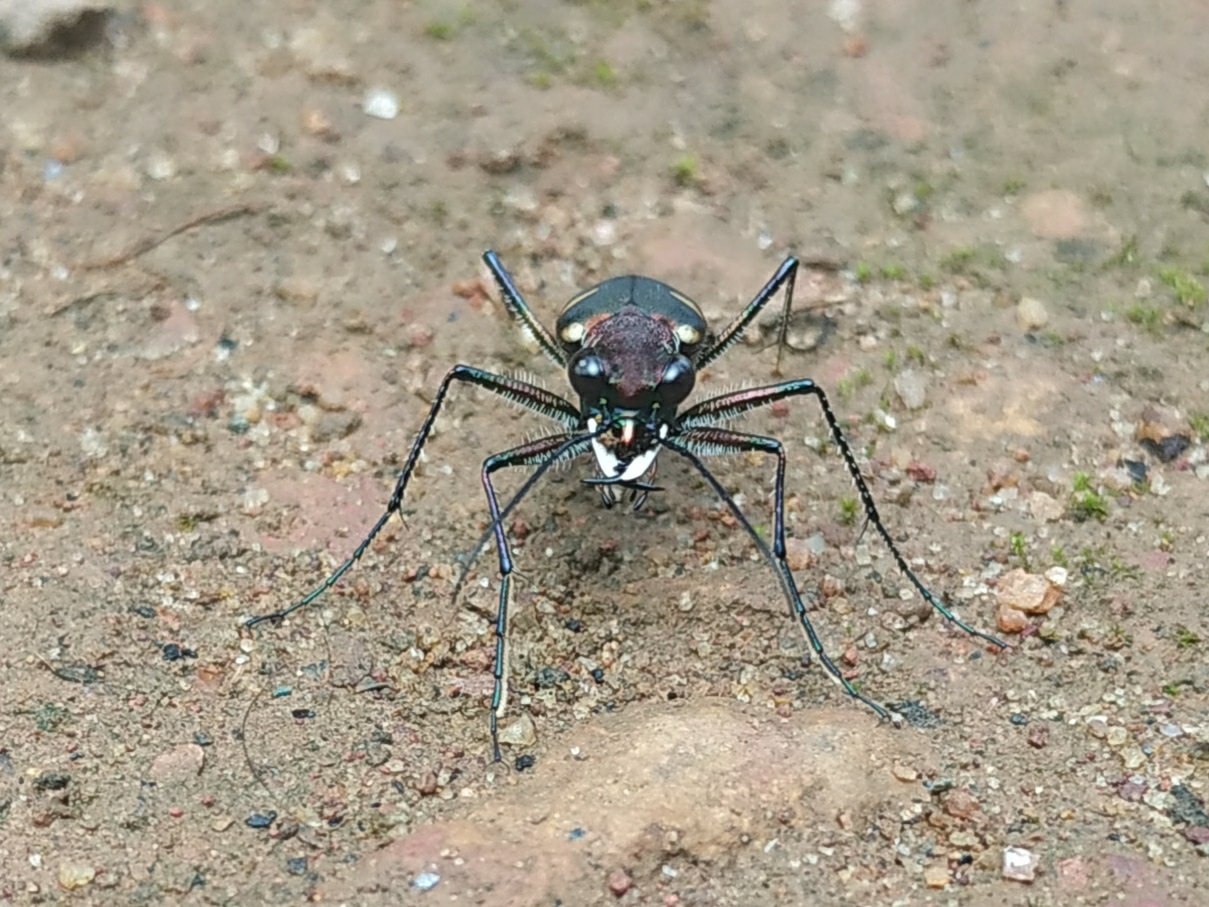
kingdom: Animalia
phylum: Arthropoda
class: Insecta
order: Coleoptera
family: Carabidae
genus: Cicindela
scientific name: Cicindela bicolor
